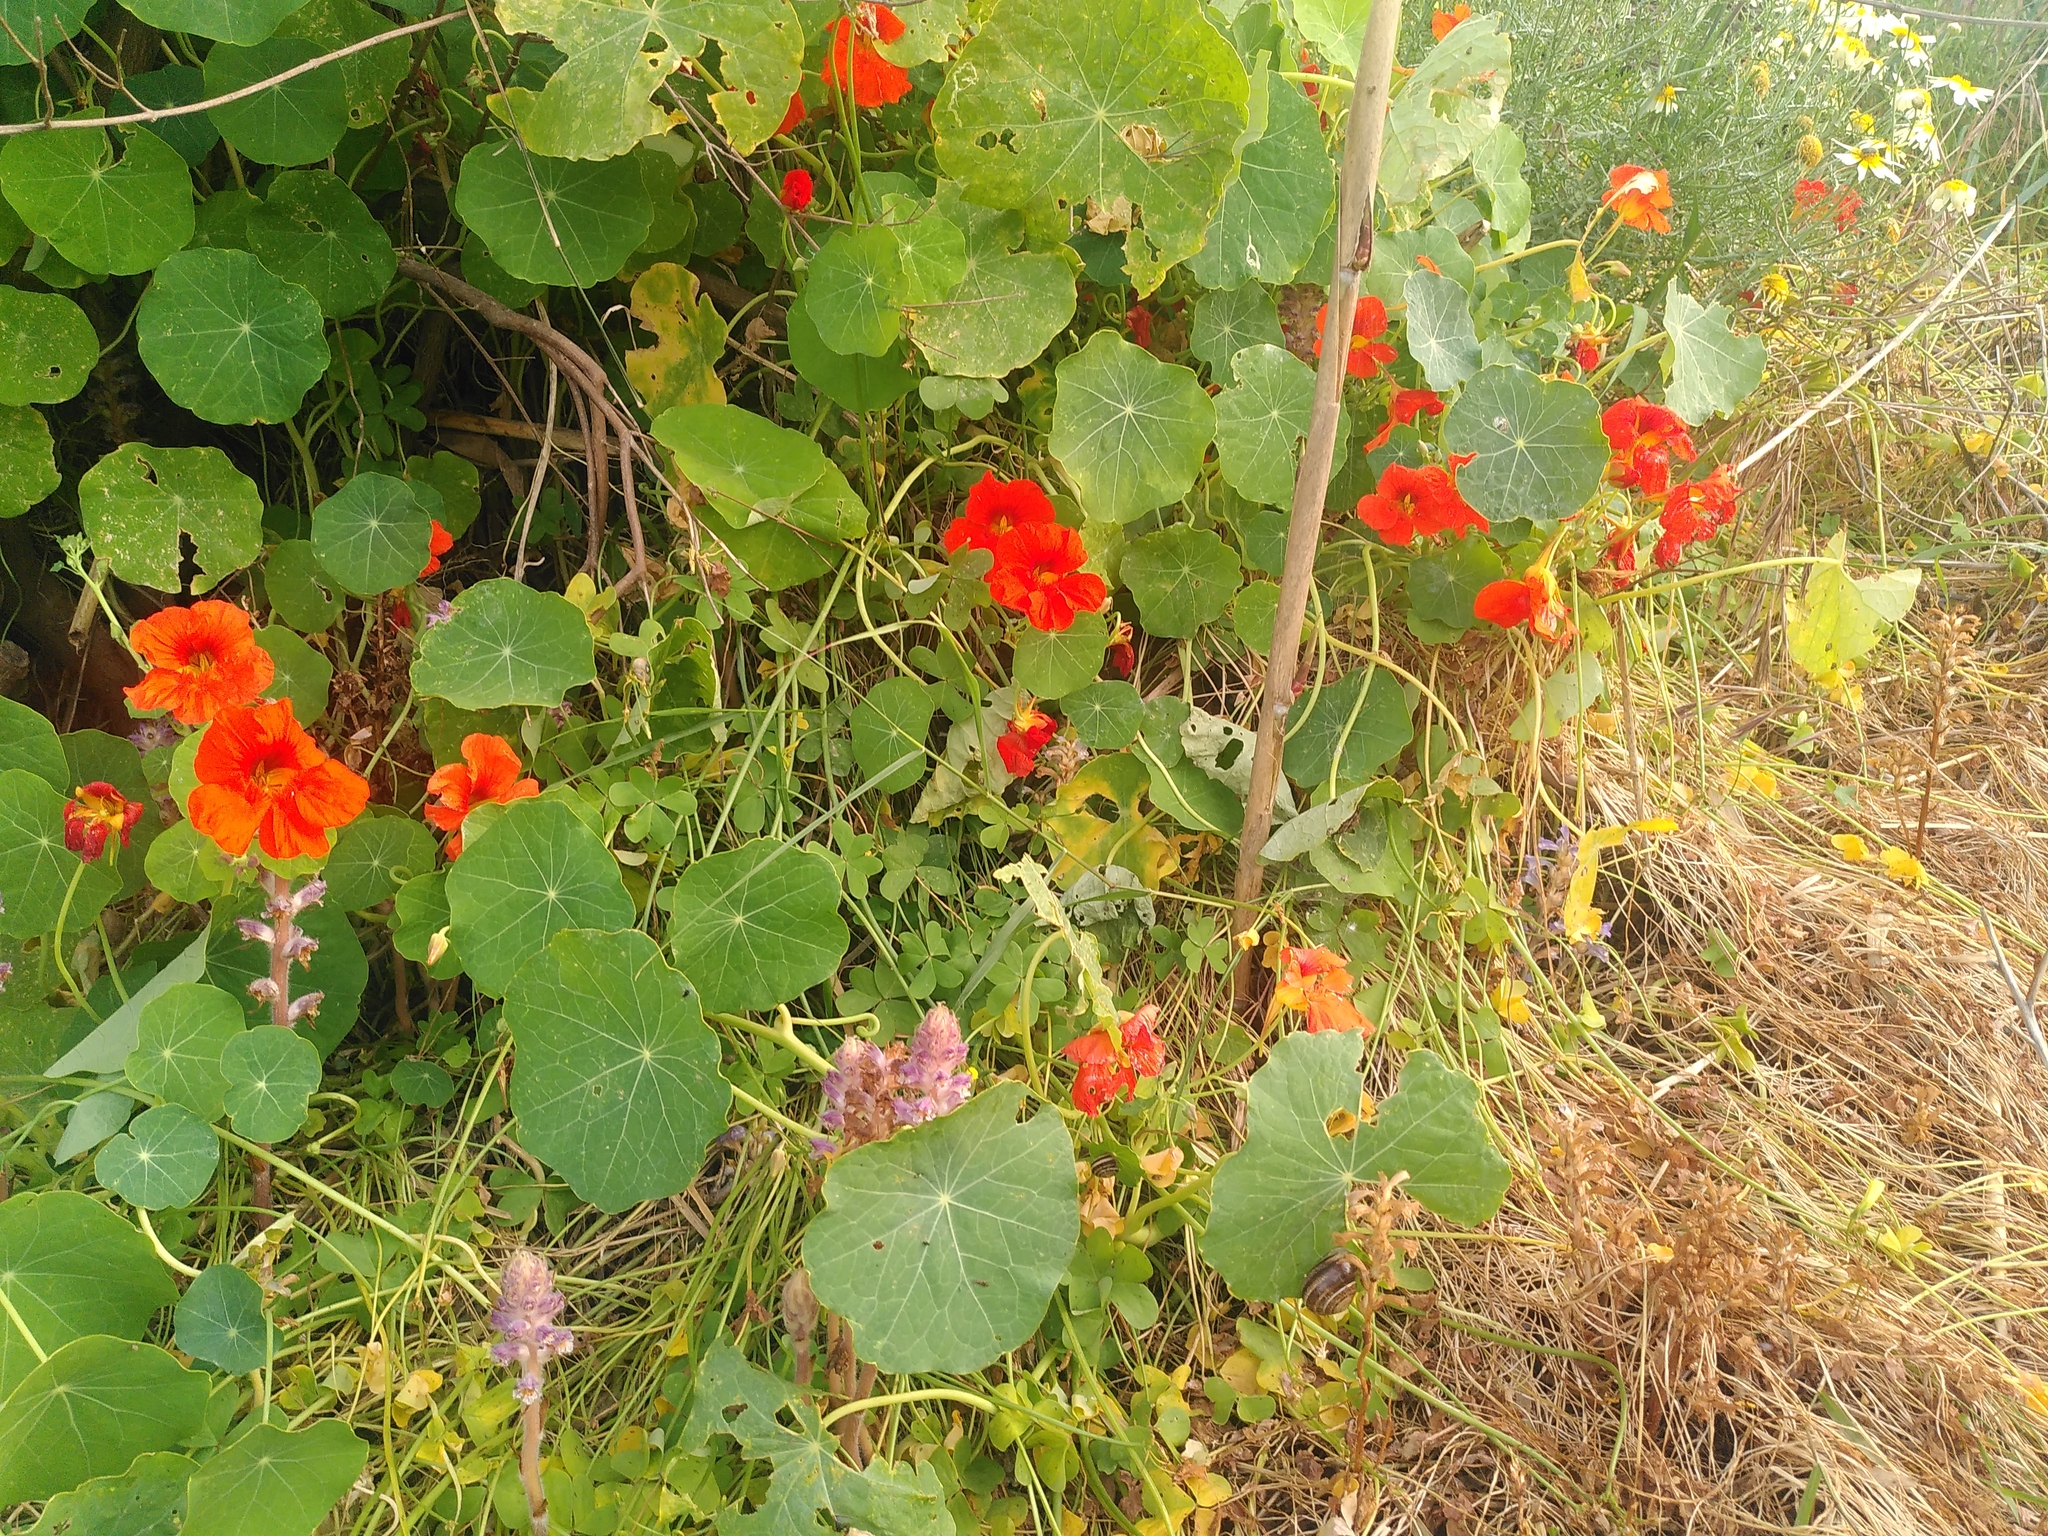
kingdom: Plantae
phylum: Tracheophyta
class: Magnoliopsida
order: Brassicales
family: Tropaeolaceae
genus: Tropaeolum
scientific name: Tropaeolum majus
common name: Nasturtium
